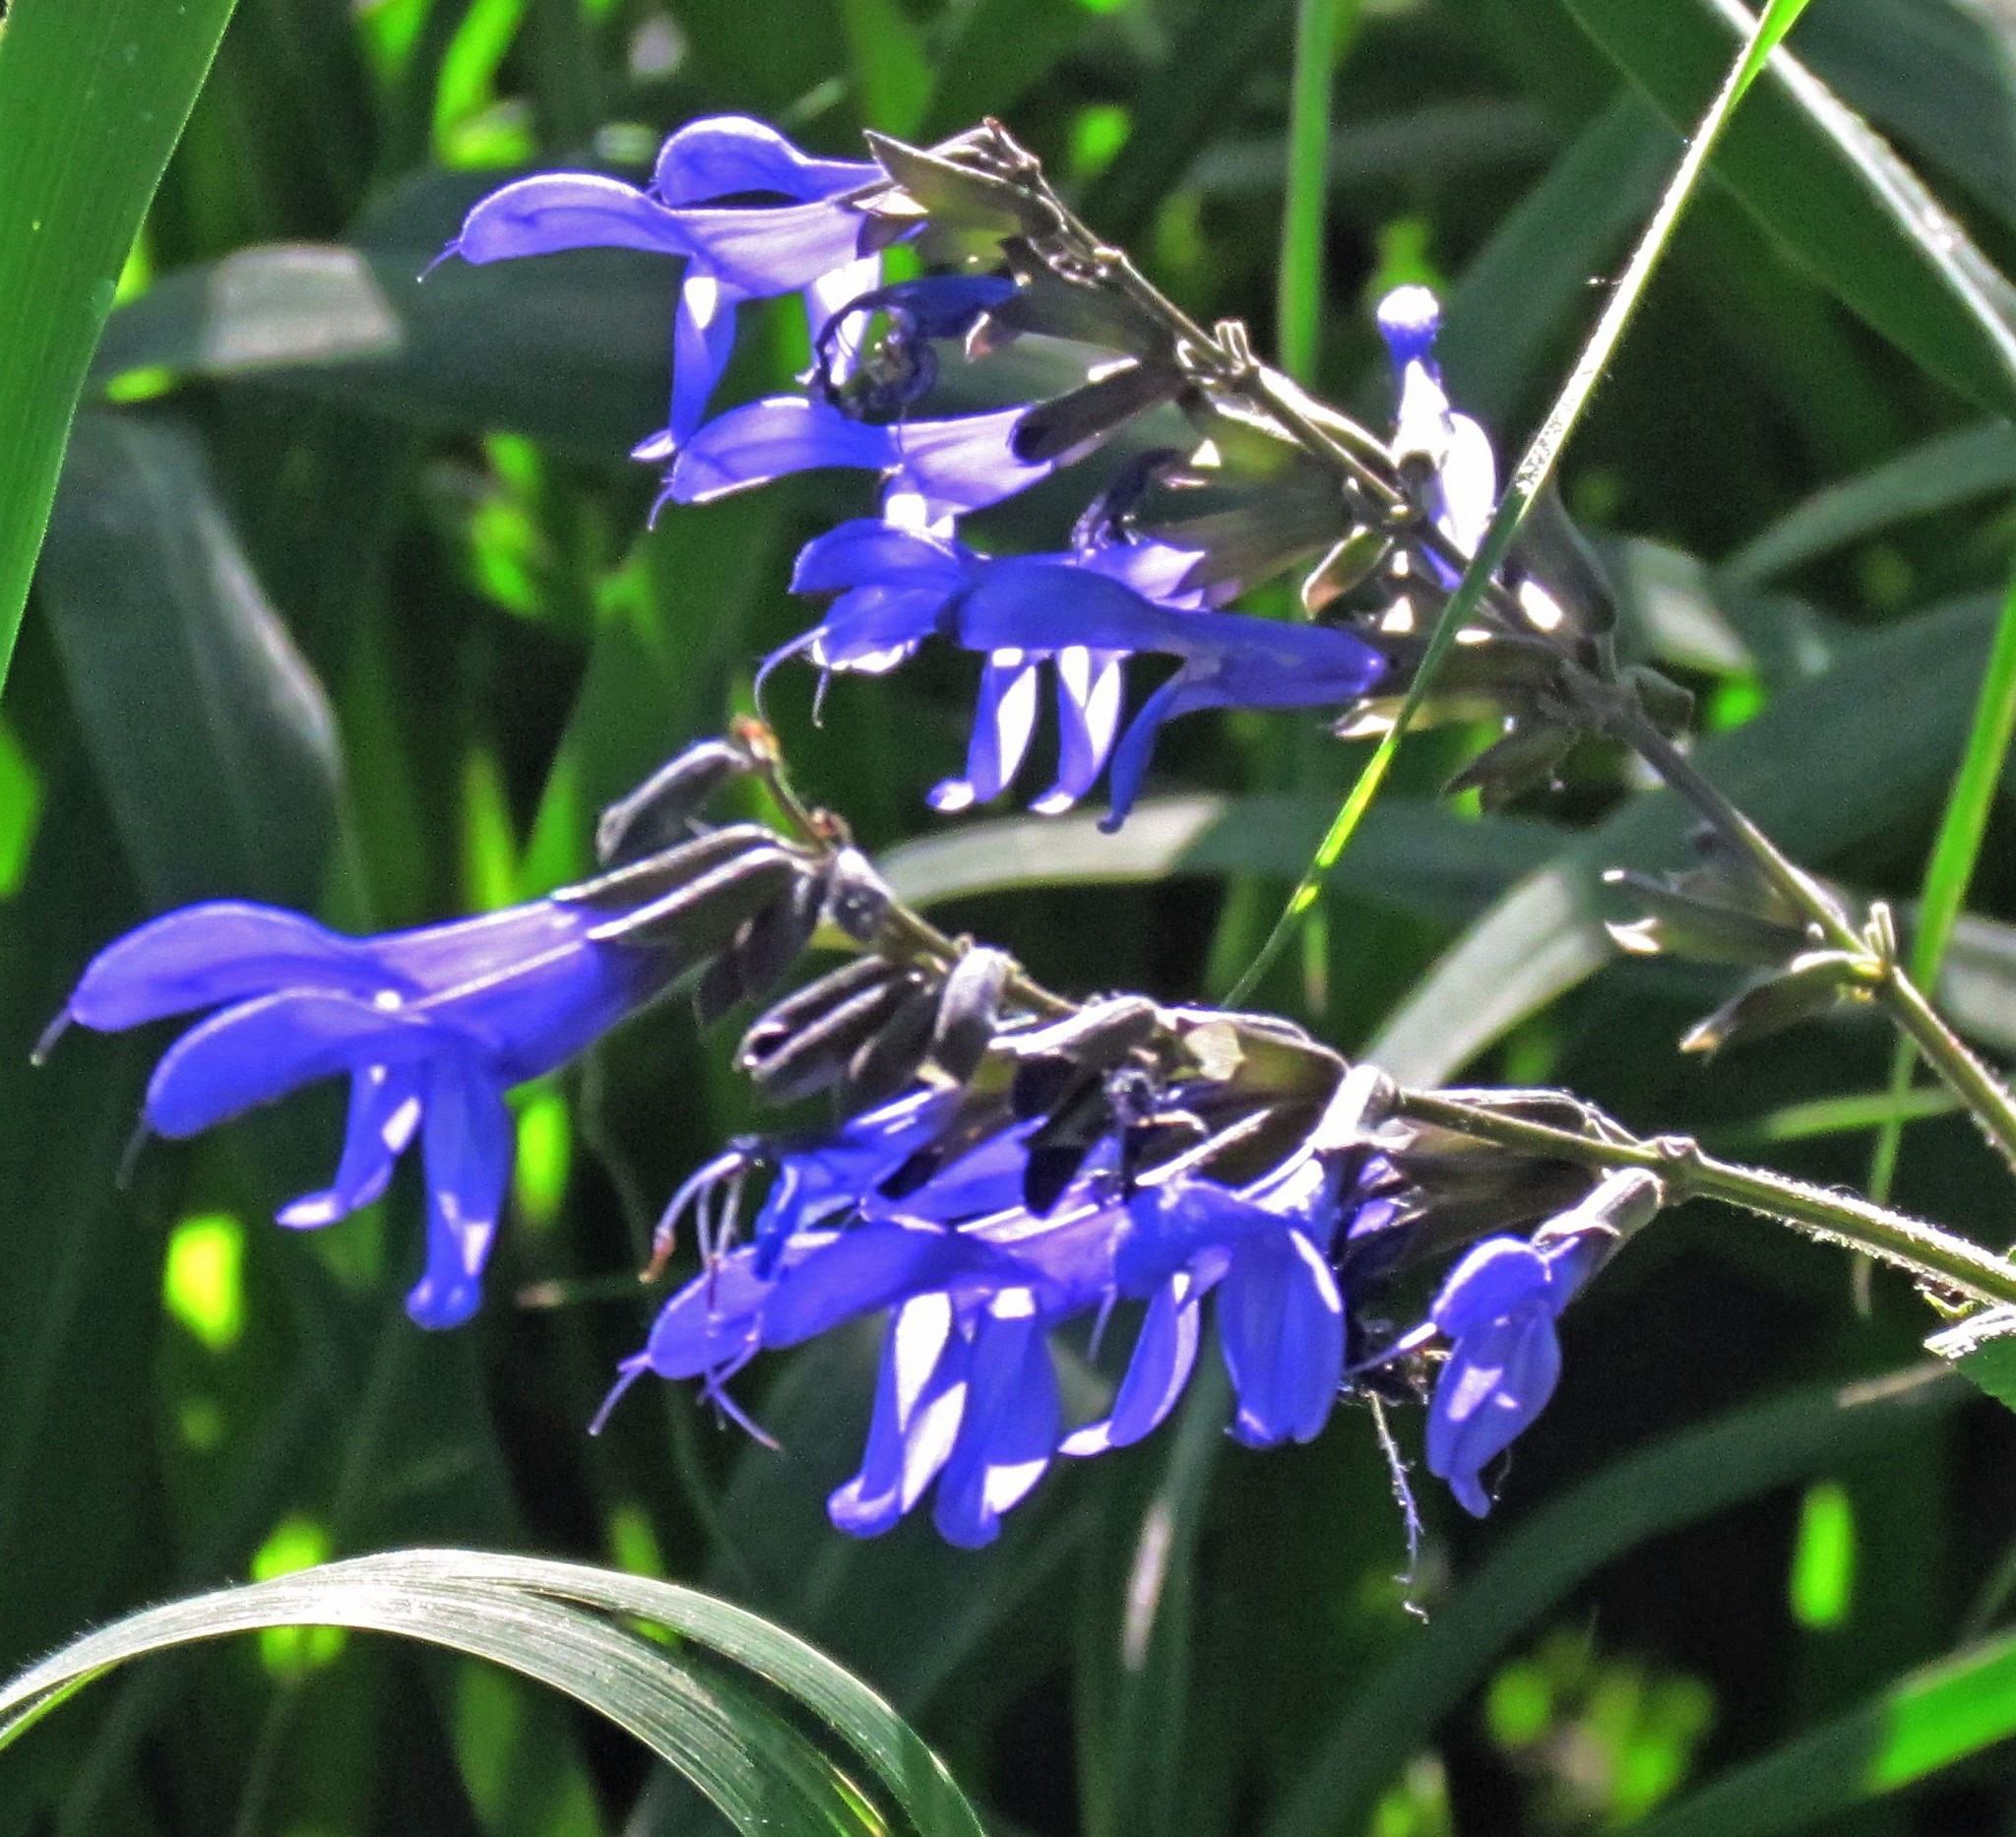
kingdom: Plantae
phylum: Tracheophyta
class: Magnoliopsida
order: Lamiales
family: Lamiaceae
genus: Salvia
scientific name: Salvia guaranitica
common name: Anise-scented sage
